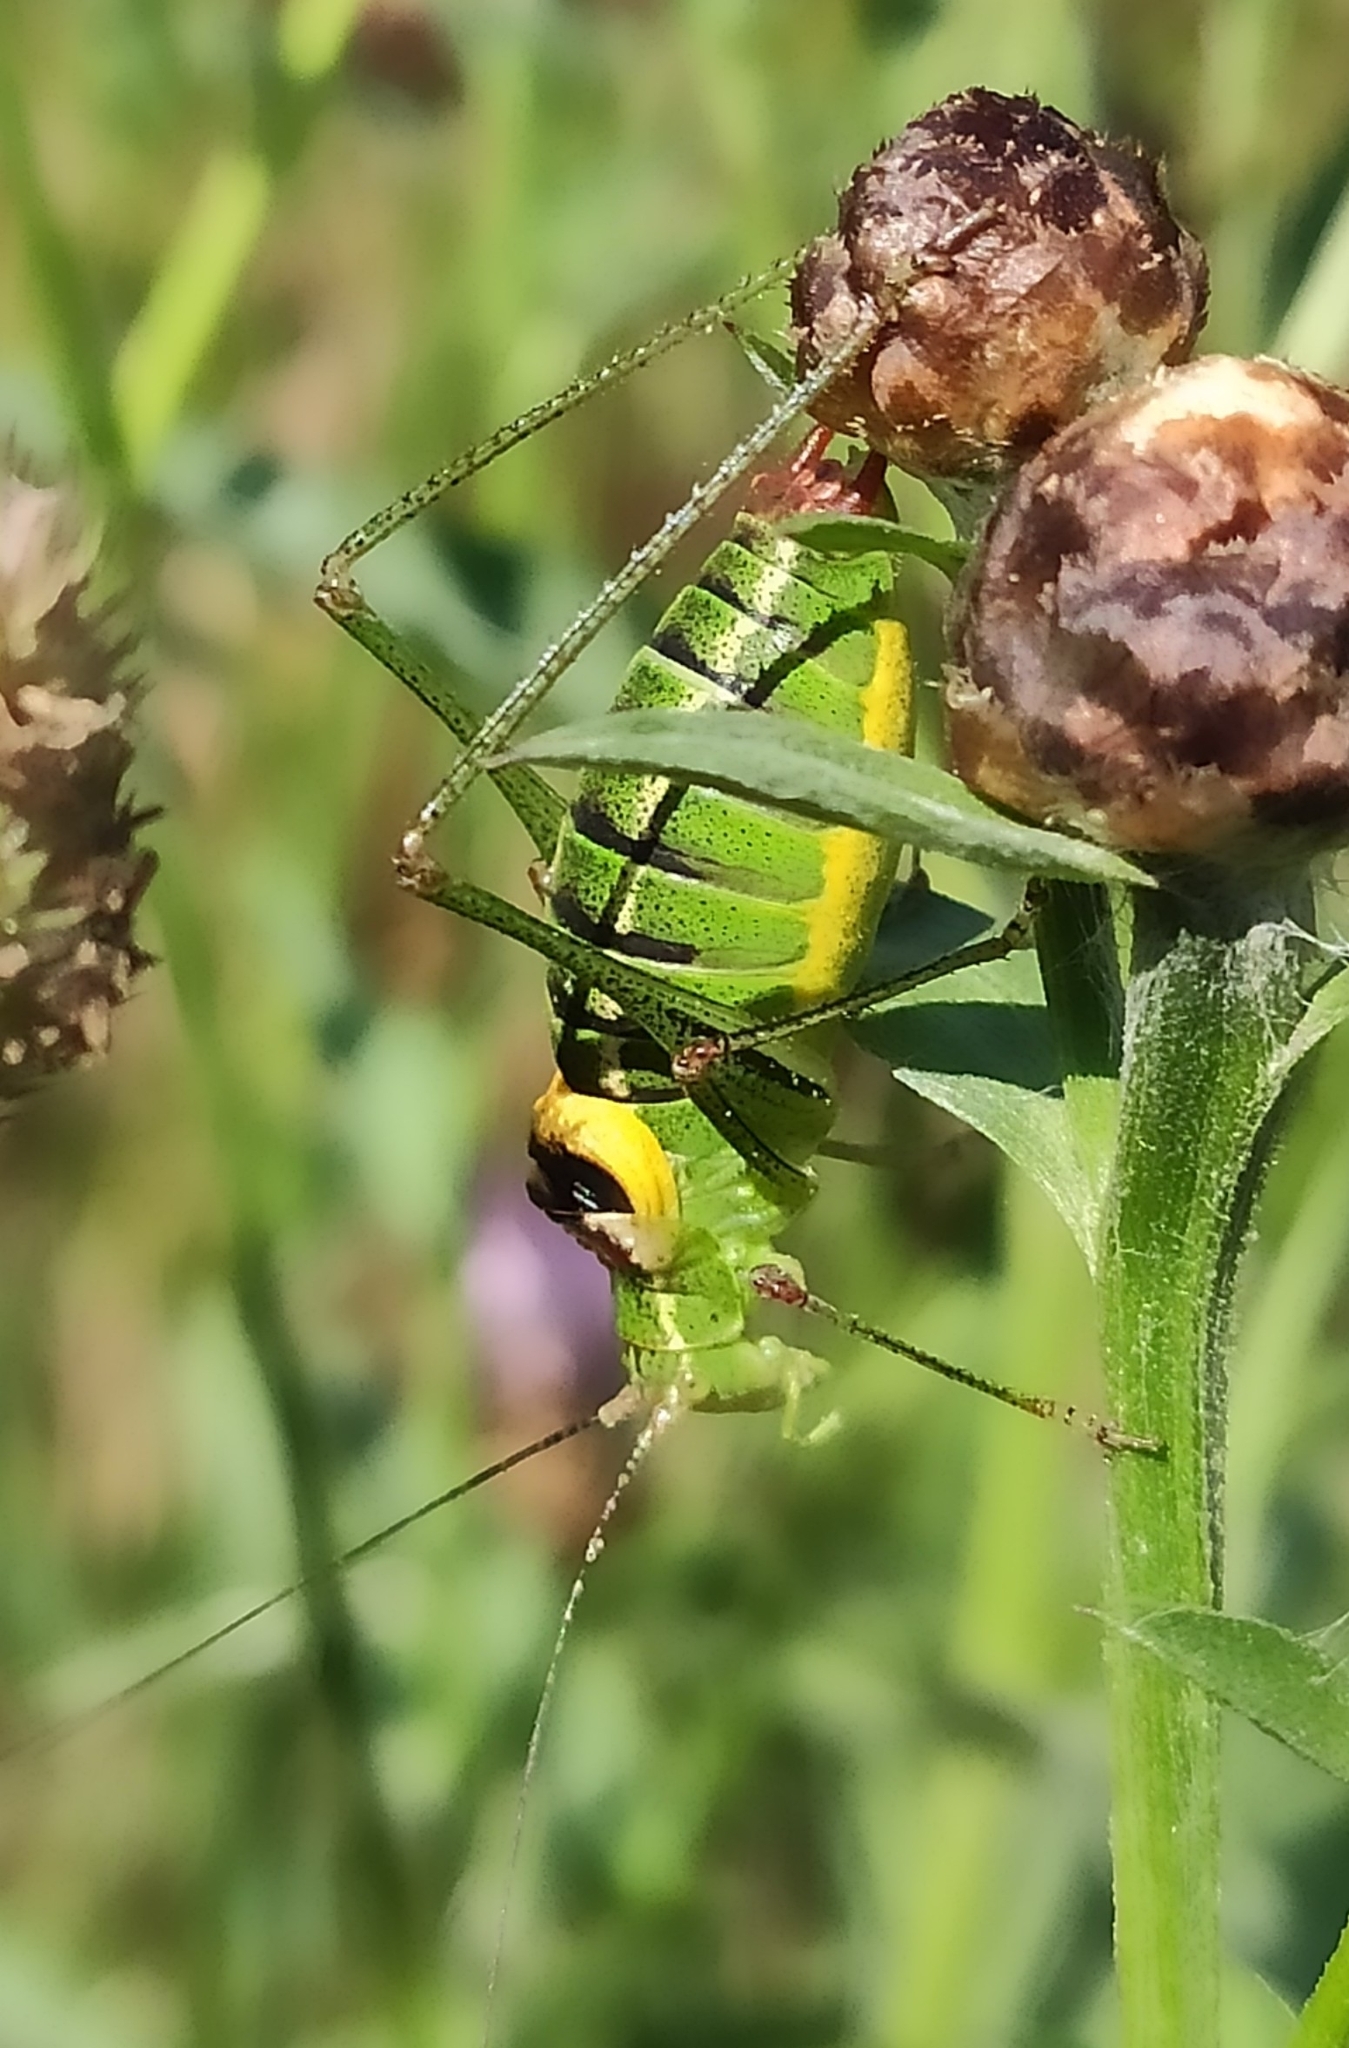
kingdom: Animalia
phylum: Arthropoda
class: Insecta
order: Orthoptera
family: Tettigoniidae
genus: Isophya
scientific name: Isophya speciosa
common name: Showy plump bush-cricket
